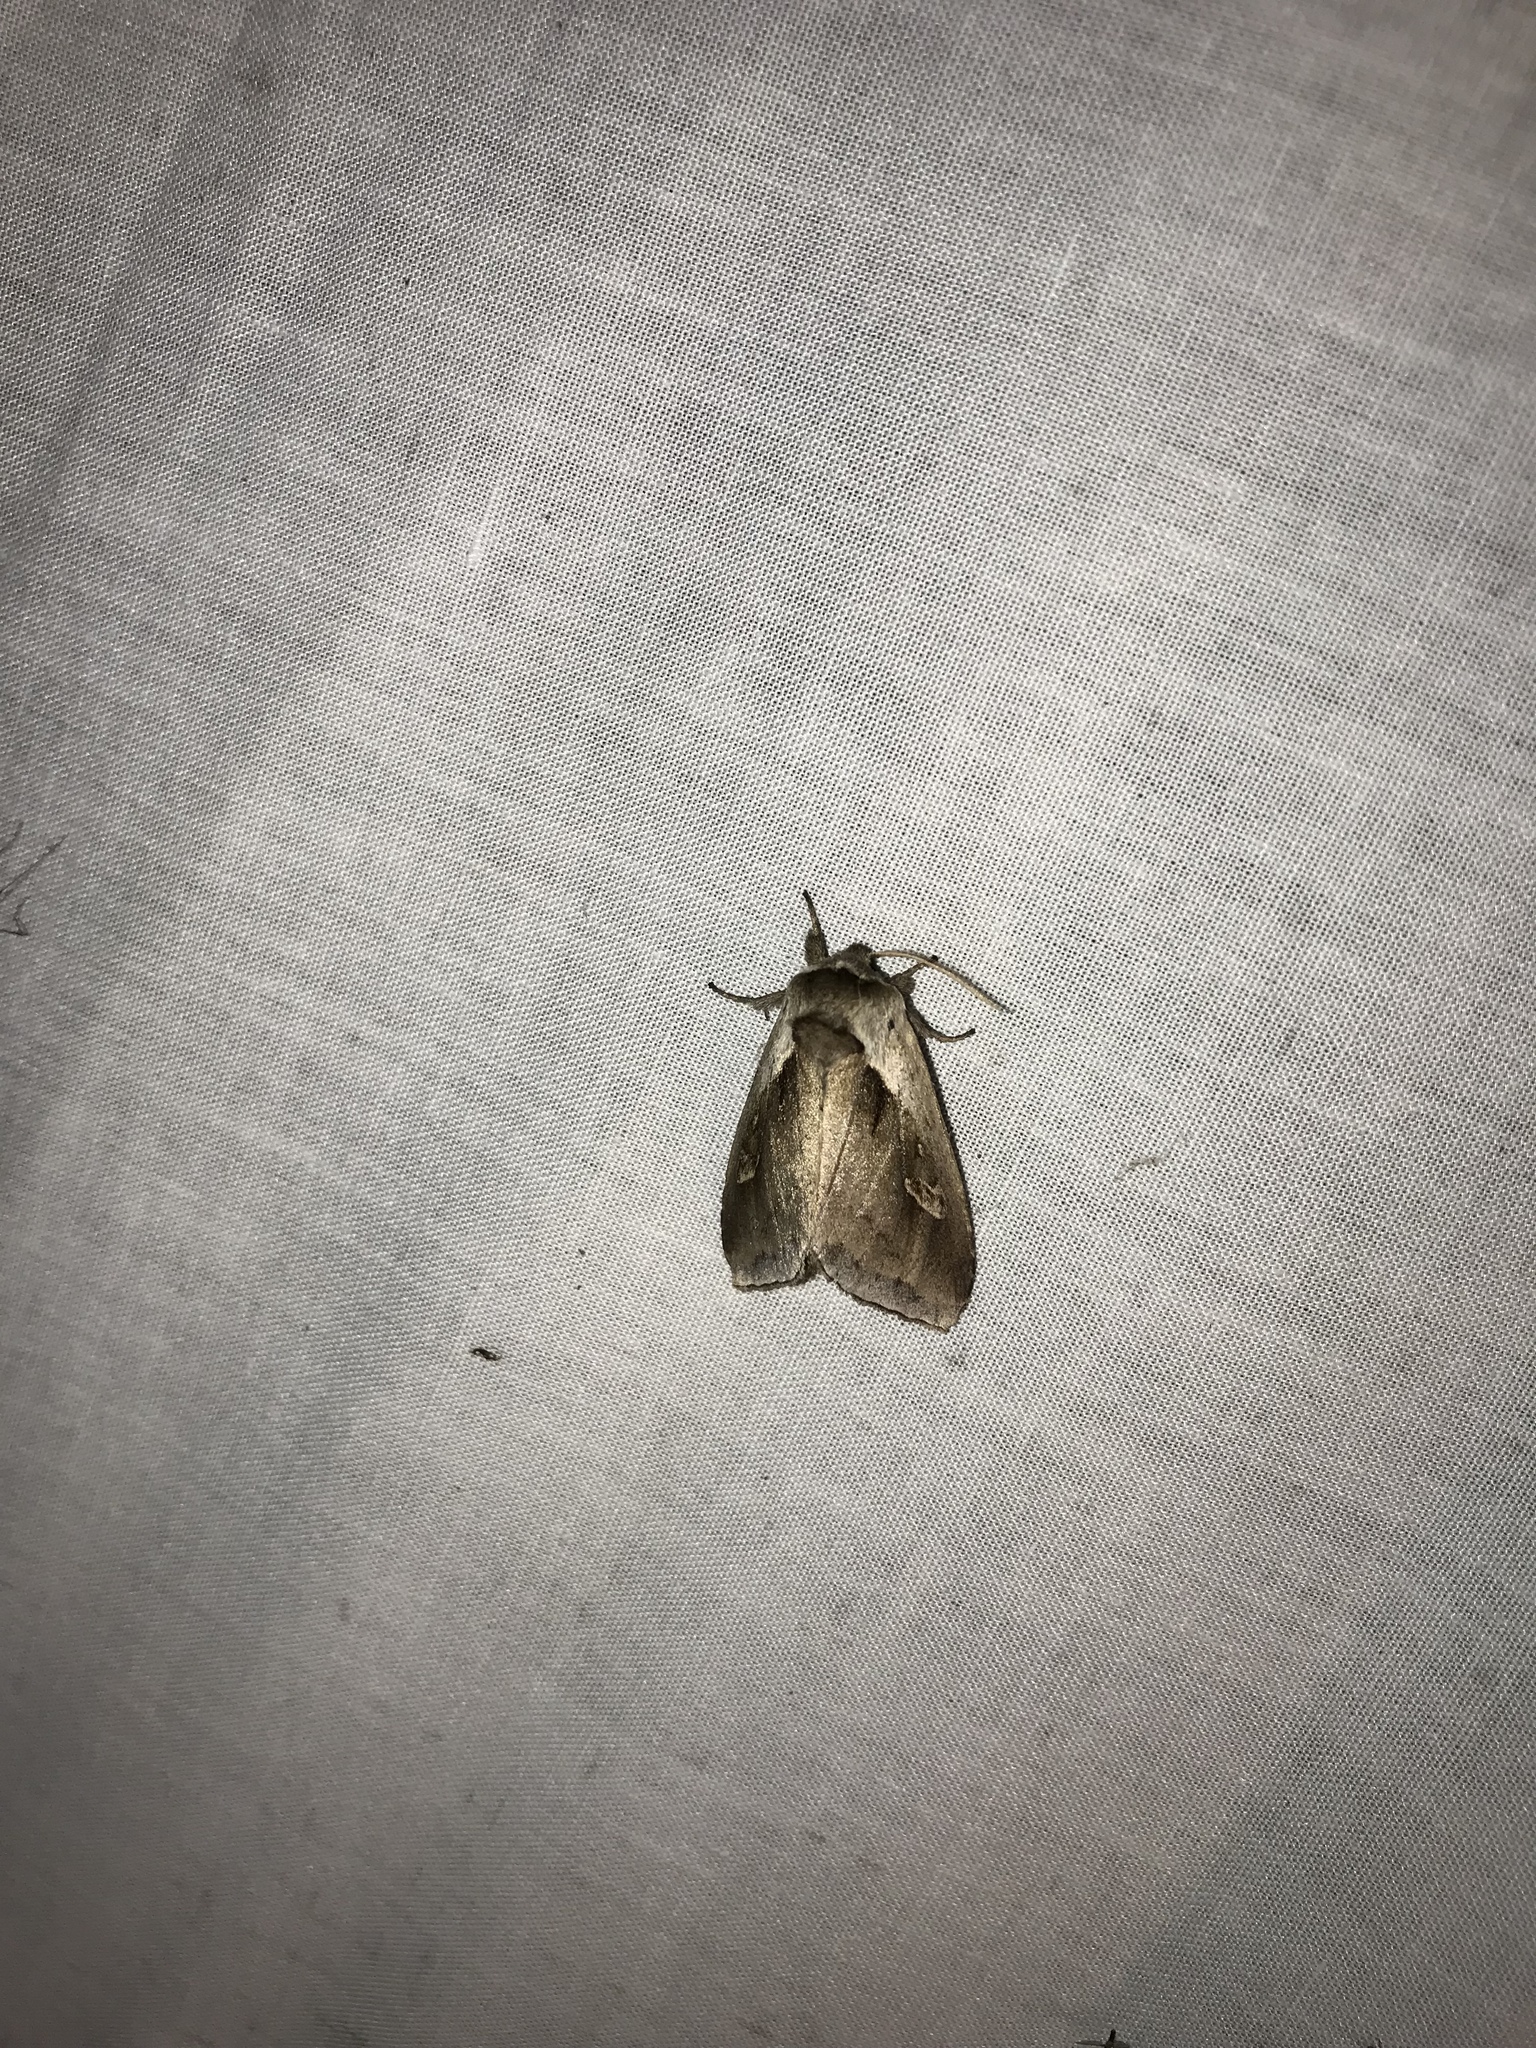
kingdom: Animalia
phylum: Arthropoda
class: Insecta
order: Lepidoptera
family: Noctuidae
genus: Bellura
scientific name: Bellura obliqua
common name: Cattail borer moth
